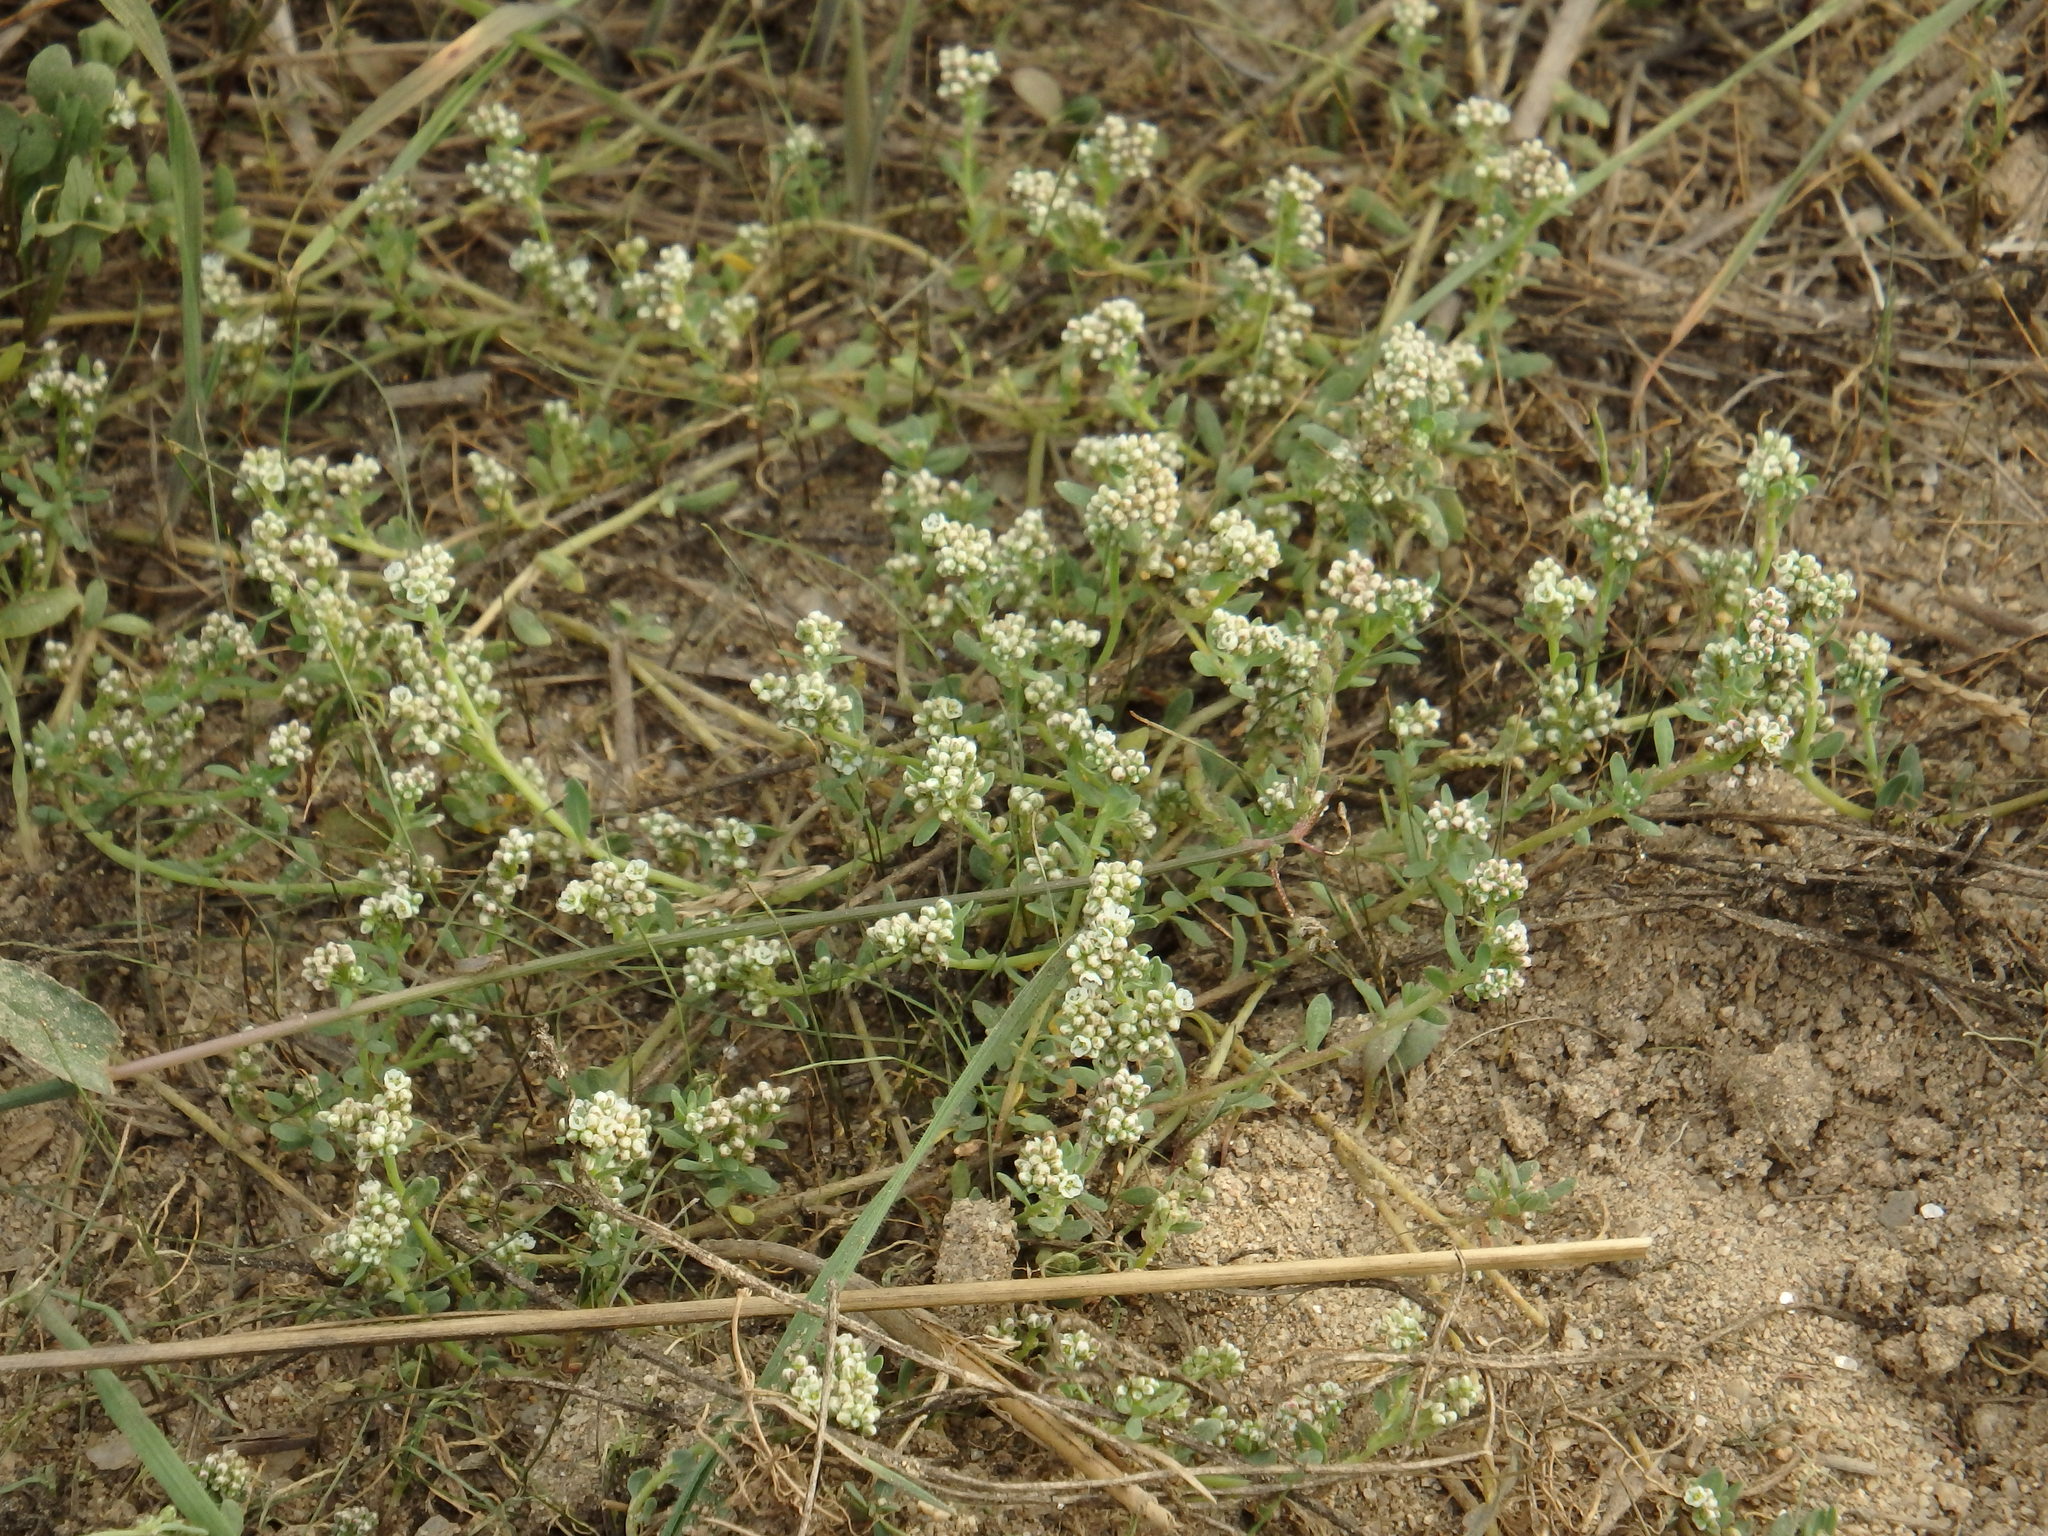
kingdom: Plantae
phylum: Tracheophyta
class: Magnoliopsida
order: Caryophyllales
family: Caryophyllaceae
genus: Corrigiola
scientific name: Corrigiola litoralis
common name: Strapwort
